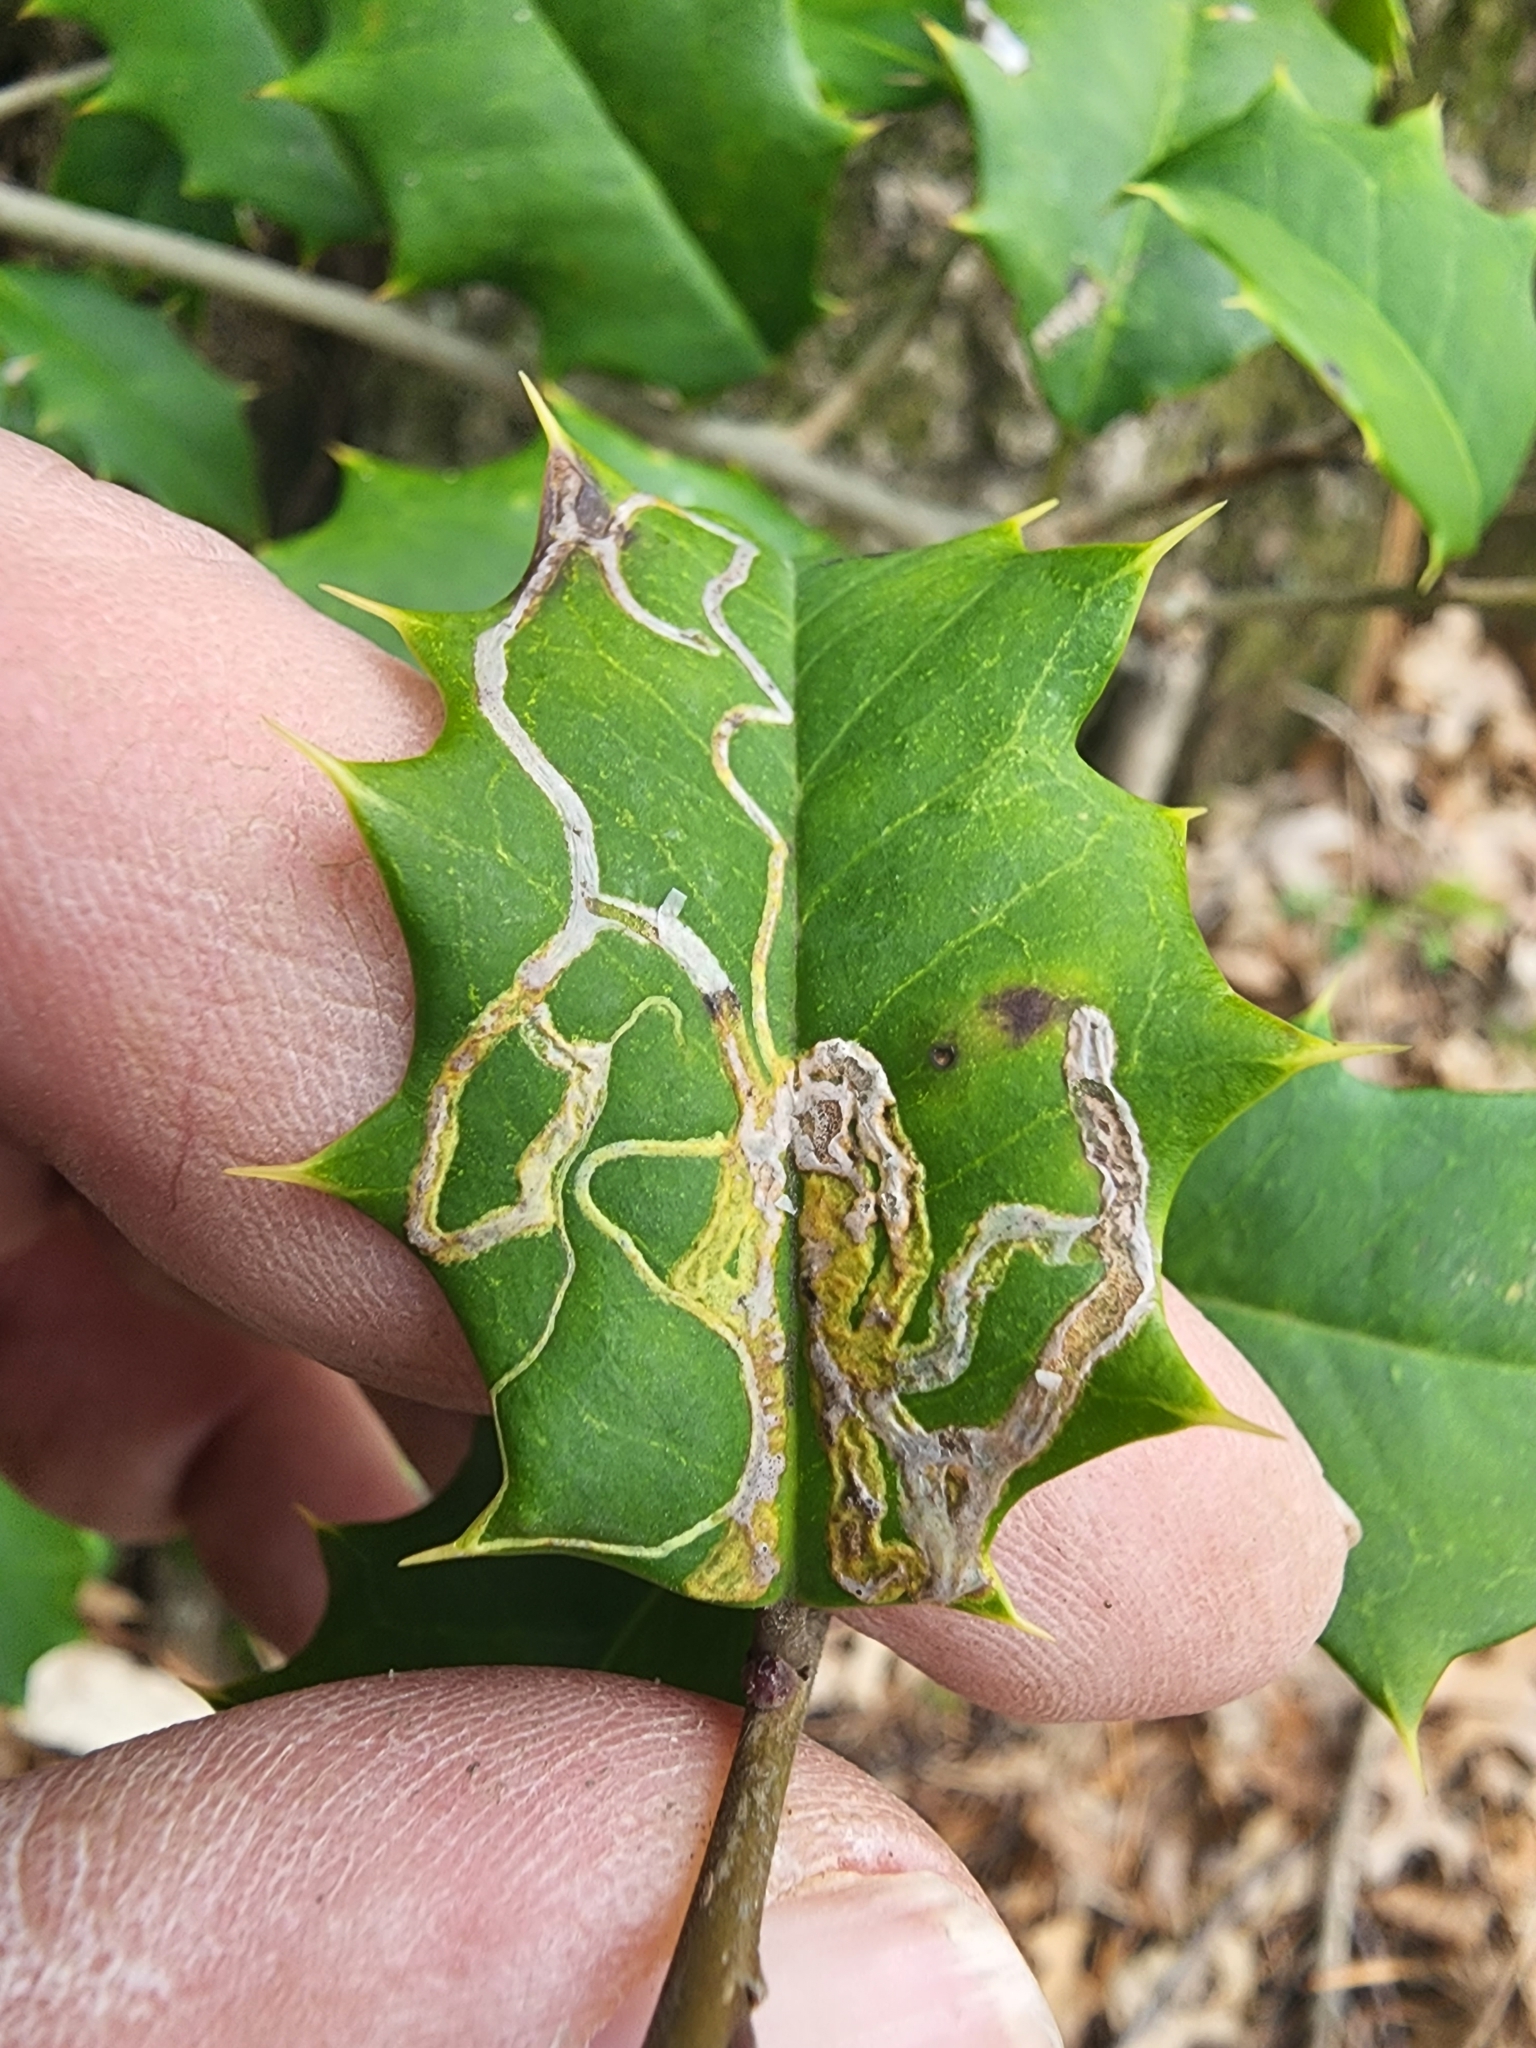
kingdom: Animalia
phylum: Arthropoda
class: Insecta
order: Diptera
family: Agromyzidae
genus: Phytomyza
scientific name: Phytomyza opacae
